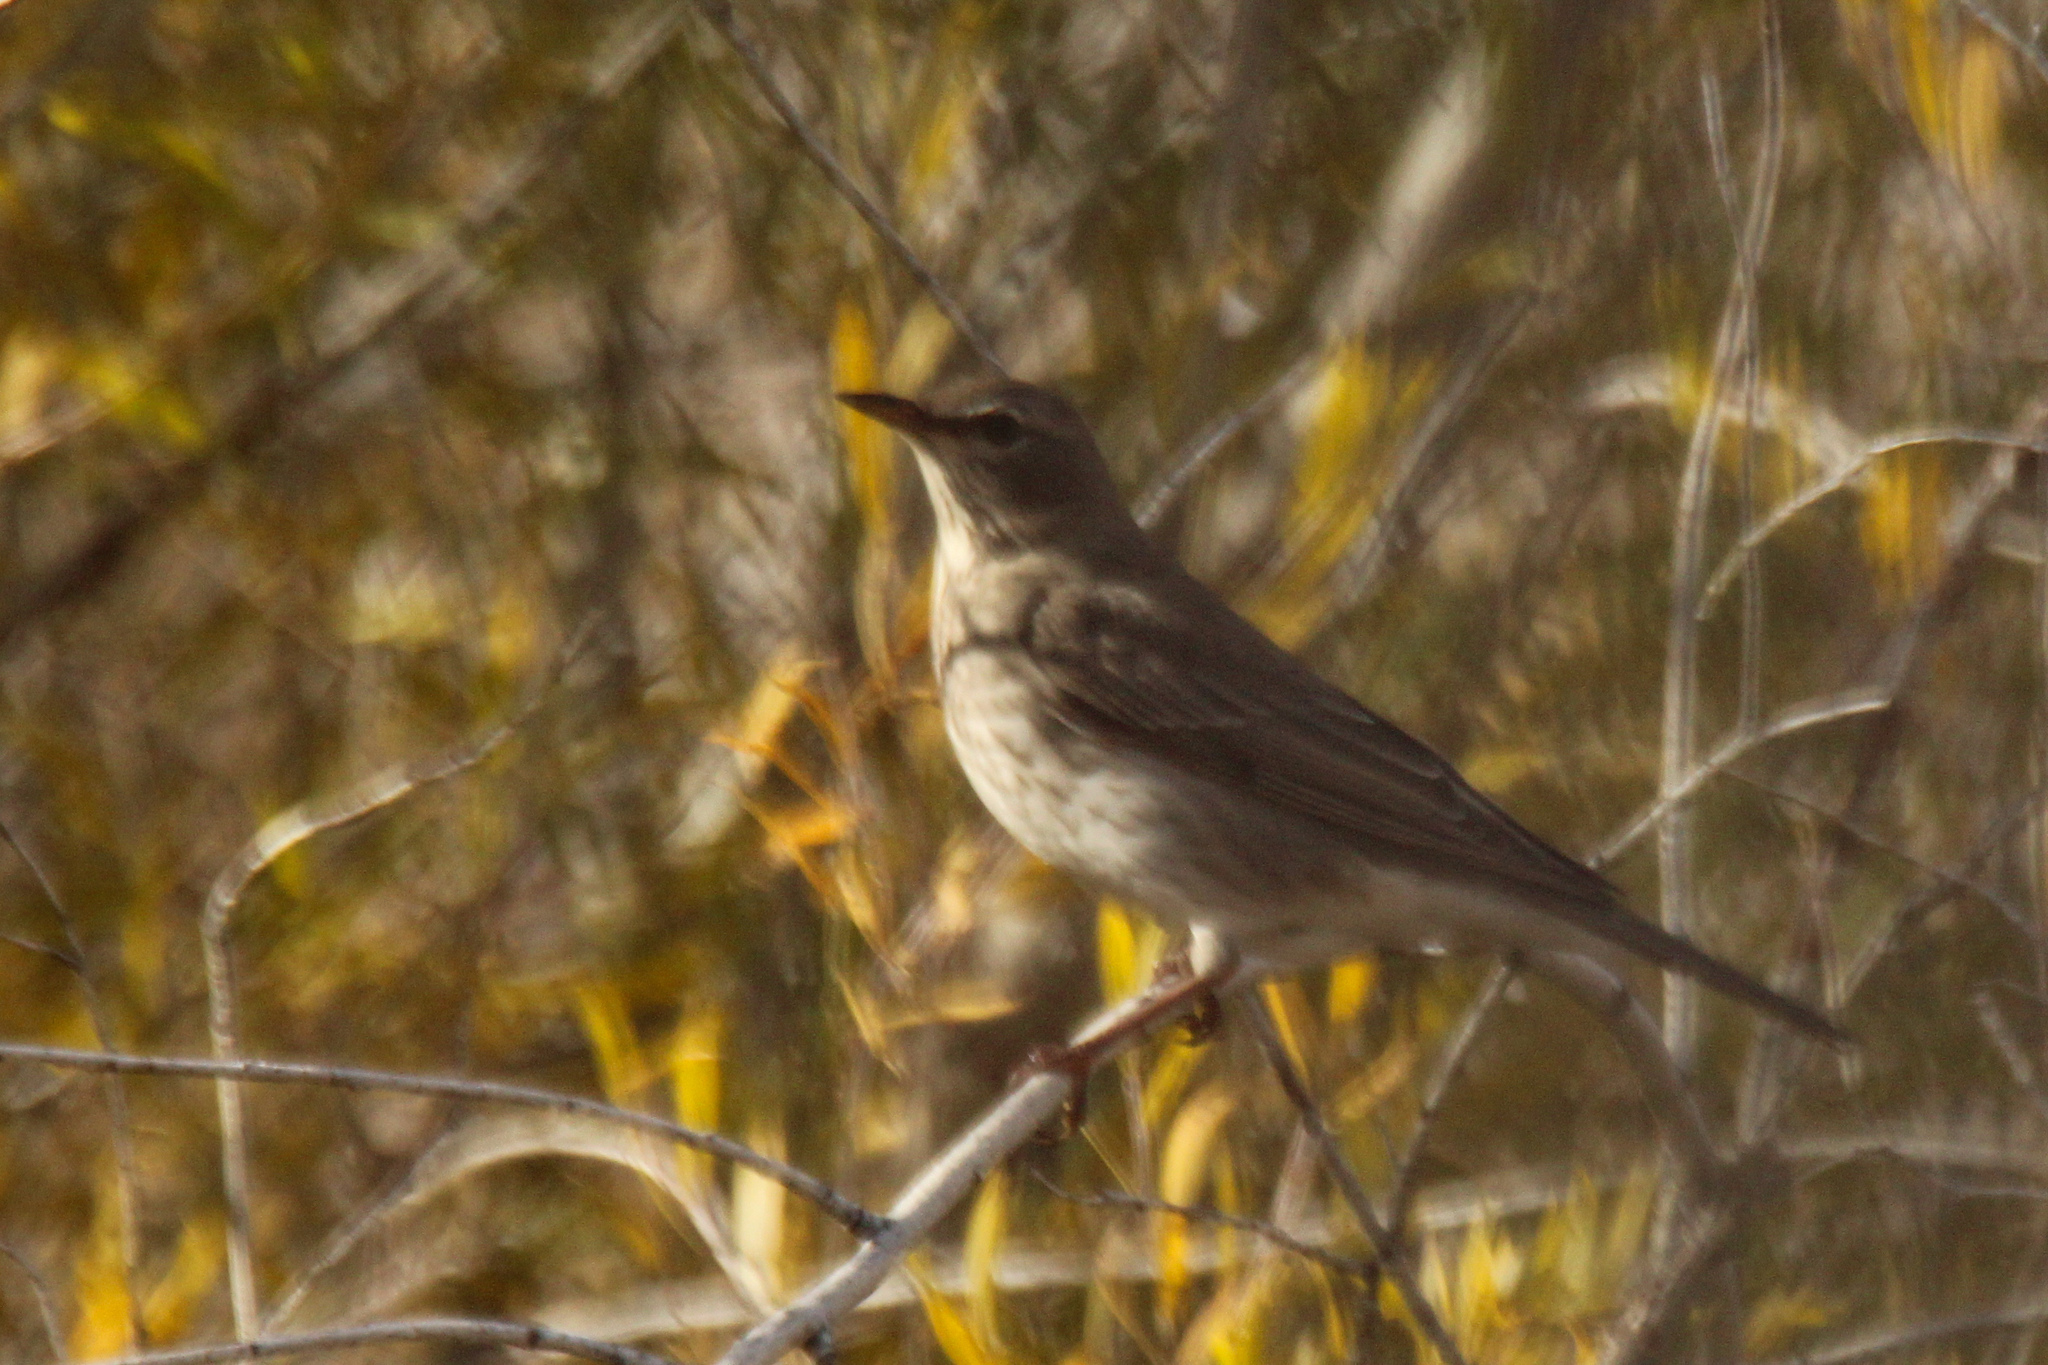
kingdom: Animalia
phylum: Chordata
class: Aves
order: Passeriformes
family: Turdidae
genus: Turdus
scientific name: Turdus atrogularis
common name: Black-throated thrush
